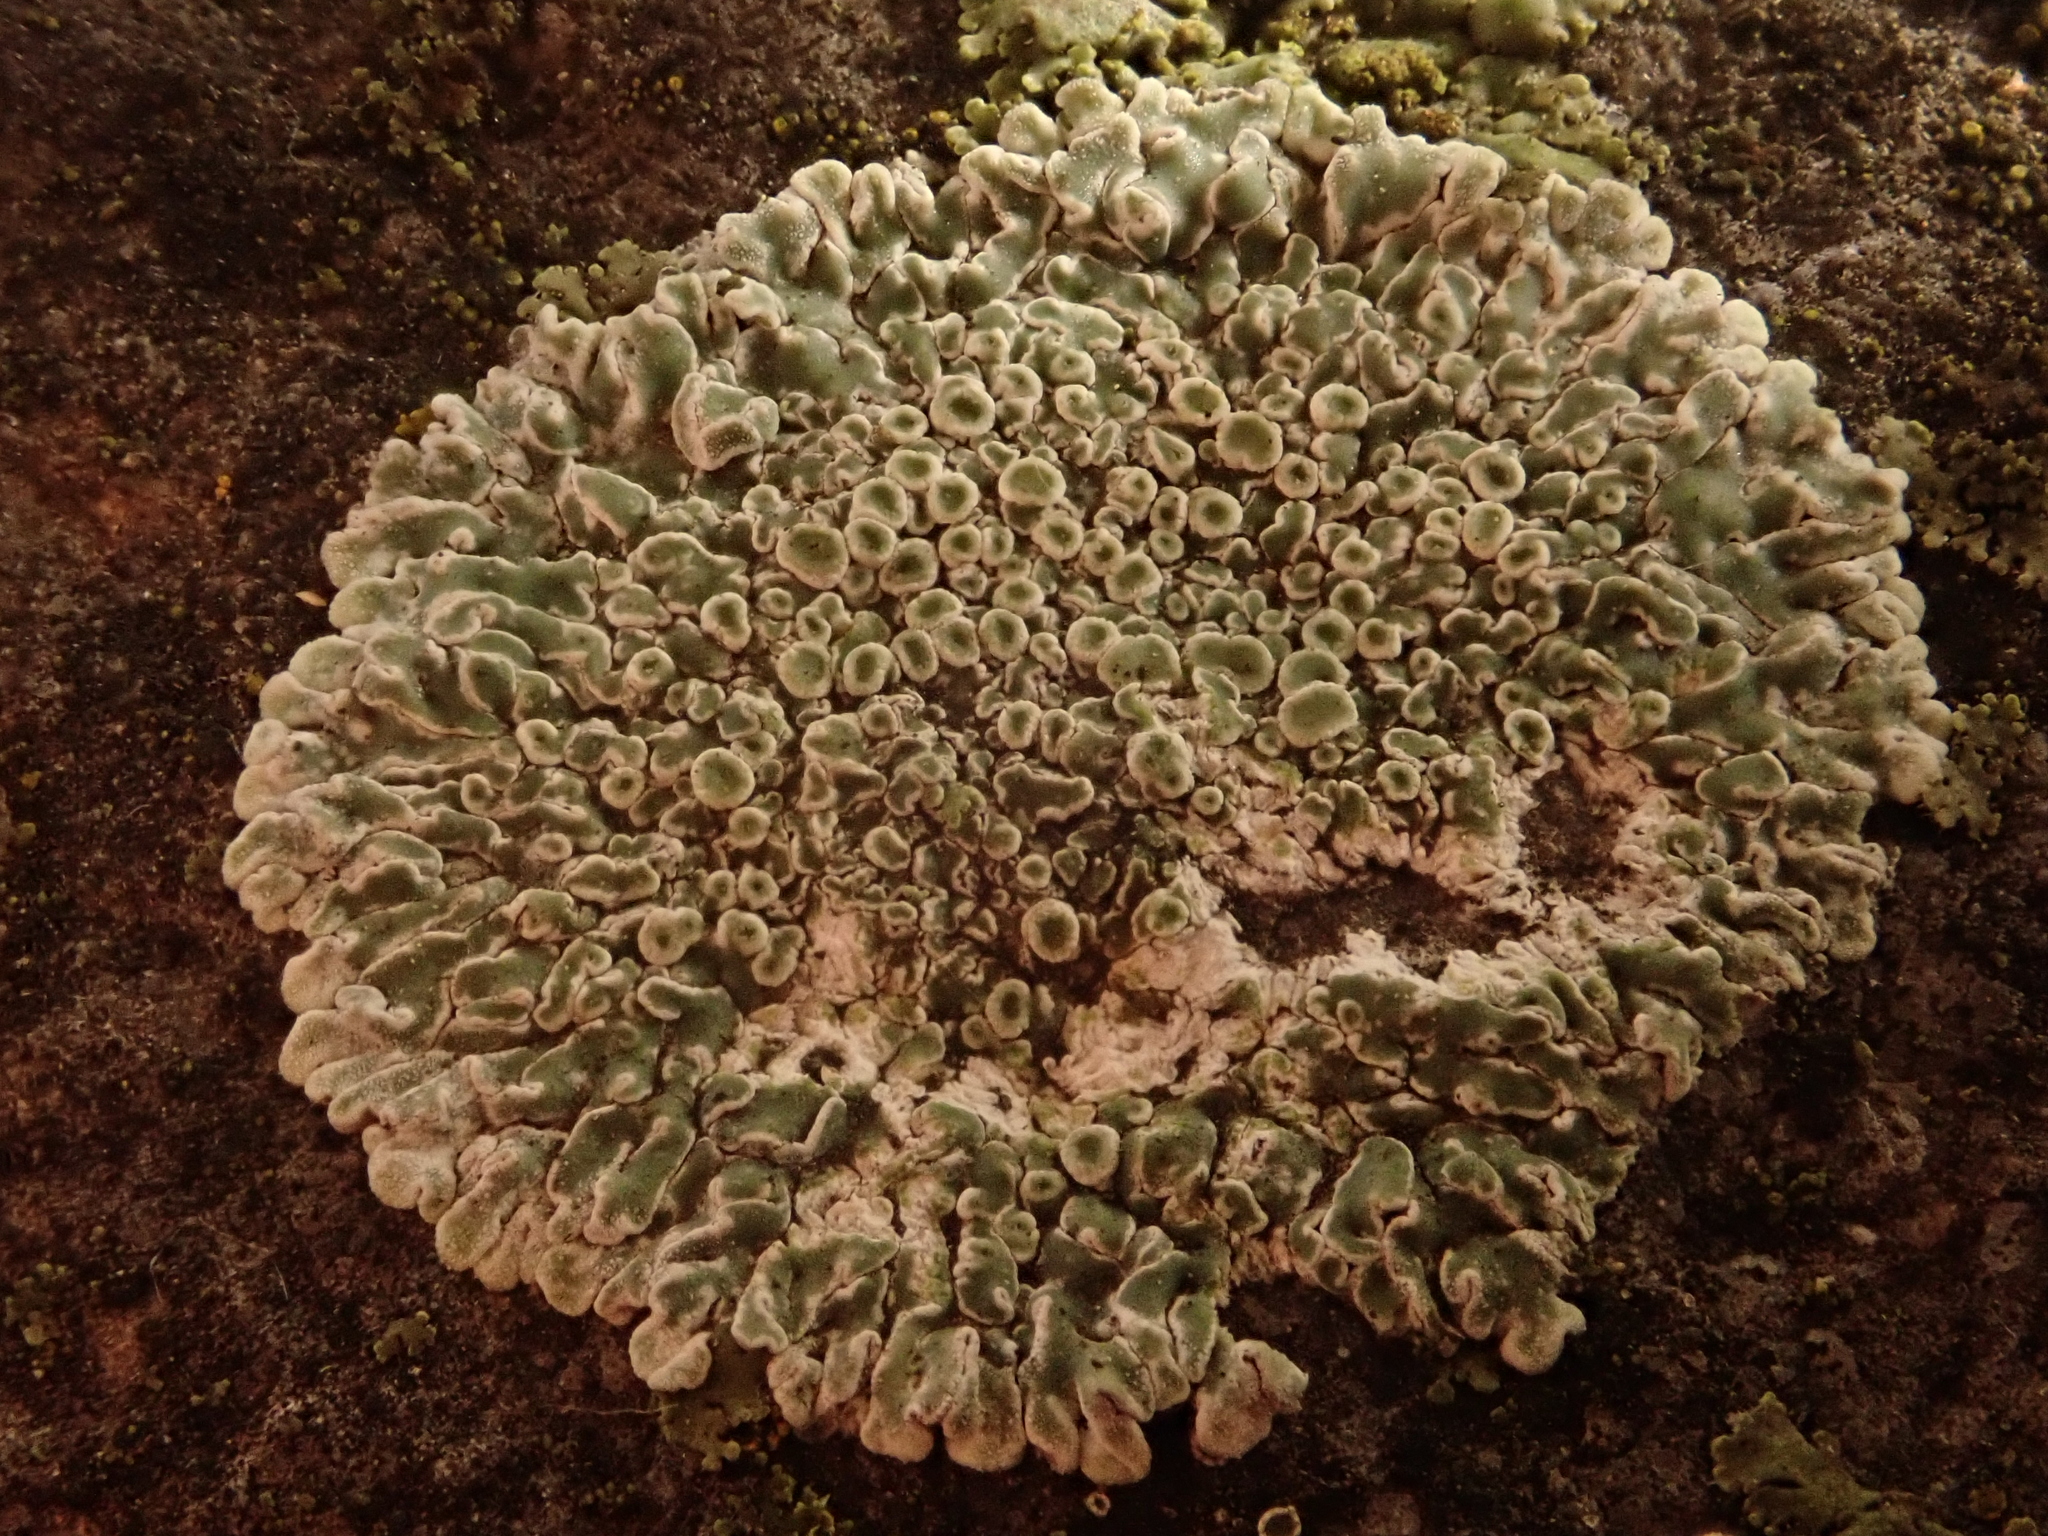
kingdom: Fungi
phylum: Ascomycota
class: Lecanoromycetes
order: Lecanorales
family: Lecanoraceae
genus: Protoparmeliopsis
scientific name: Protoparmeliopsis muralis
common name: Stonewall rim lichen
